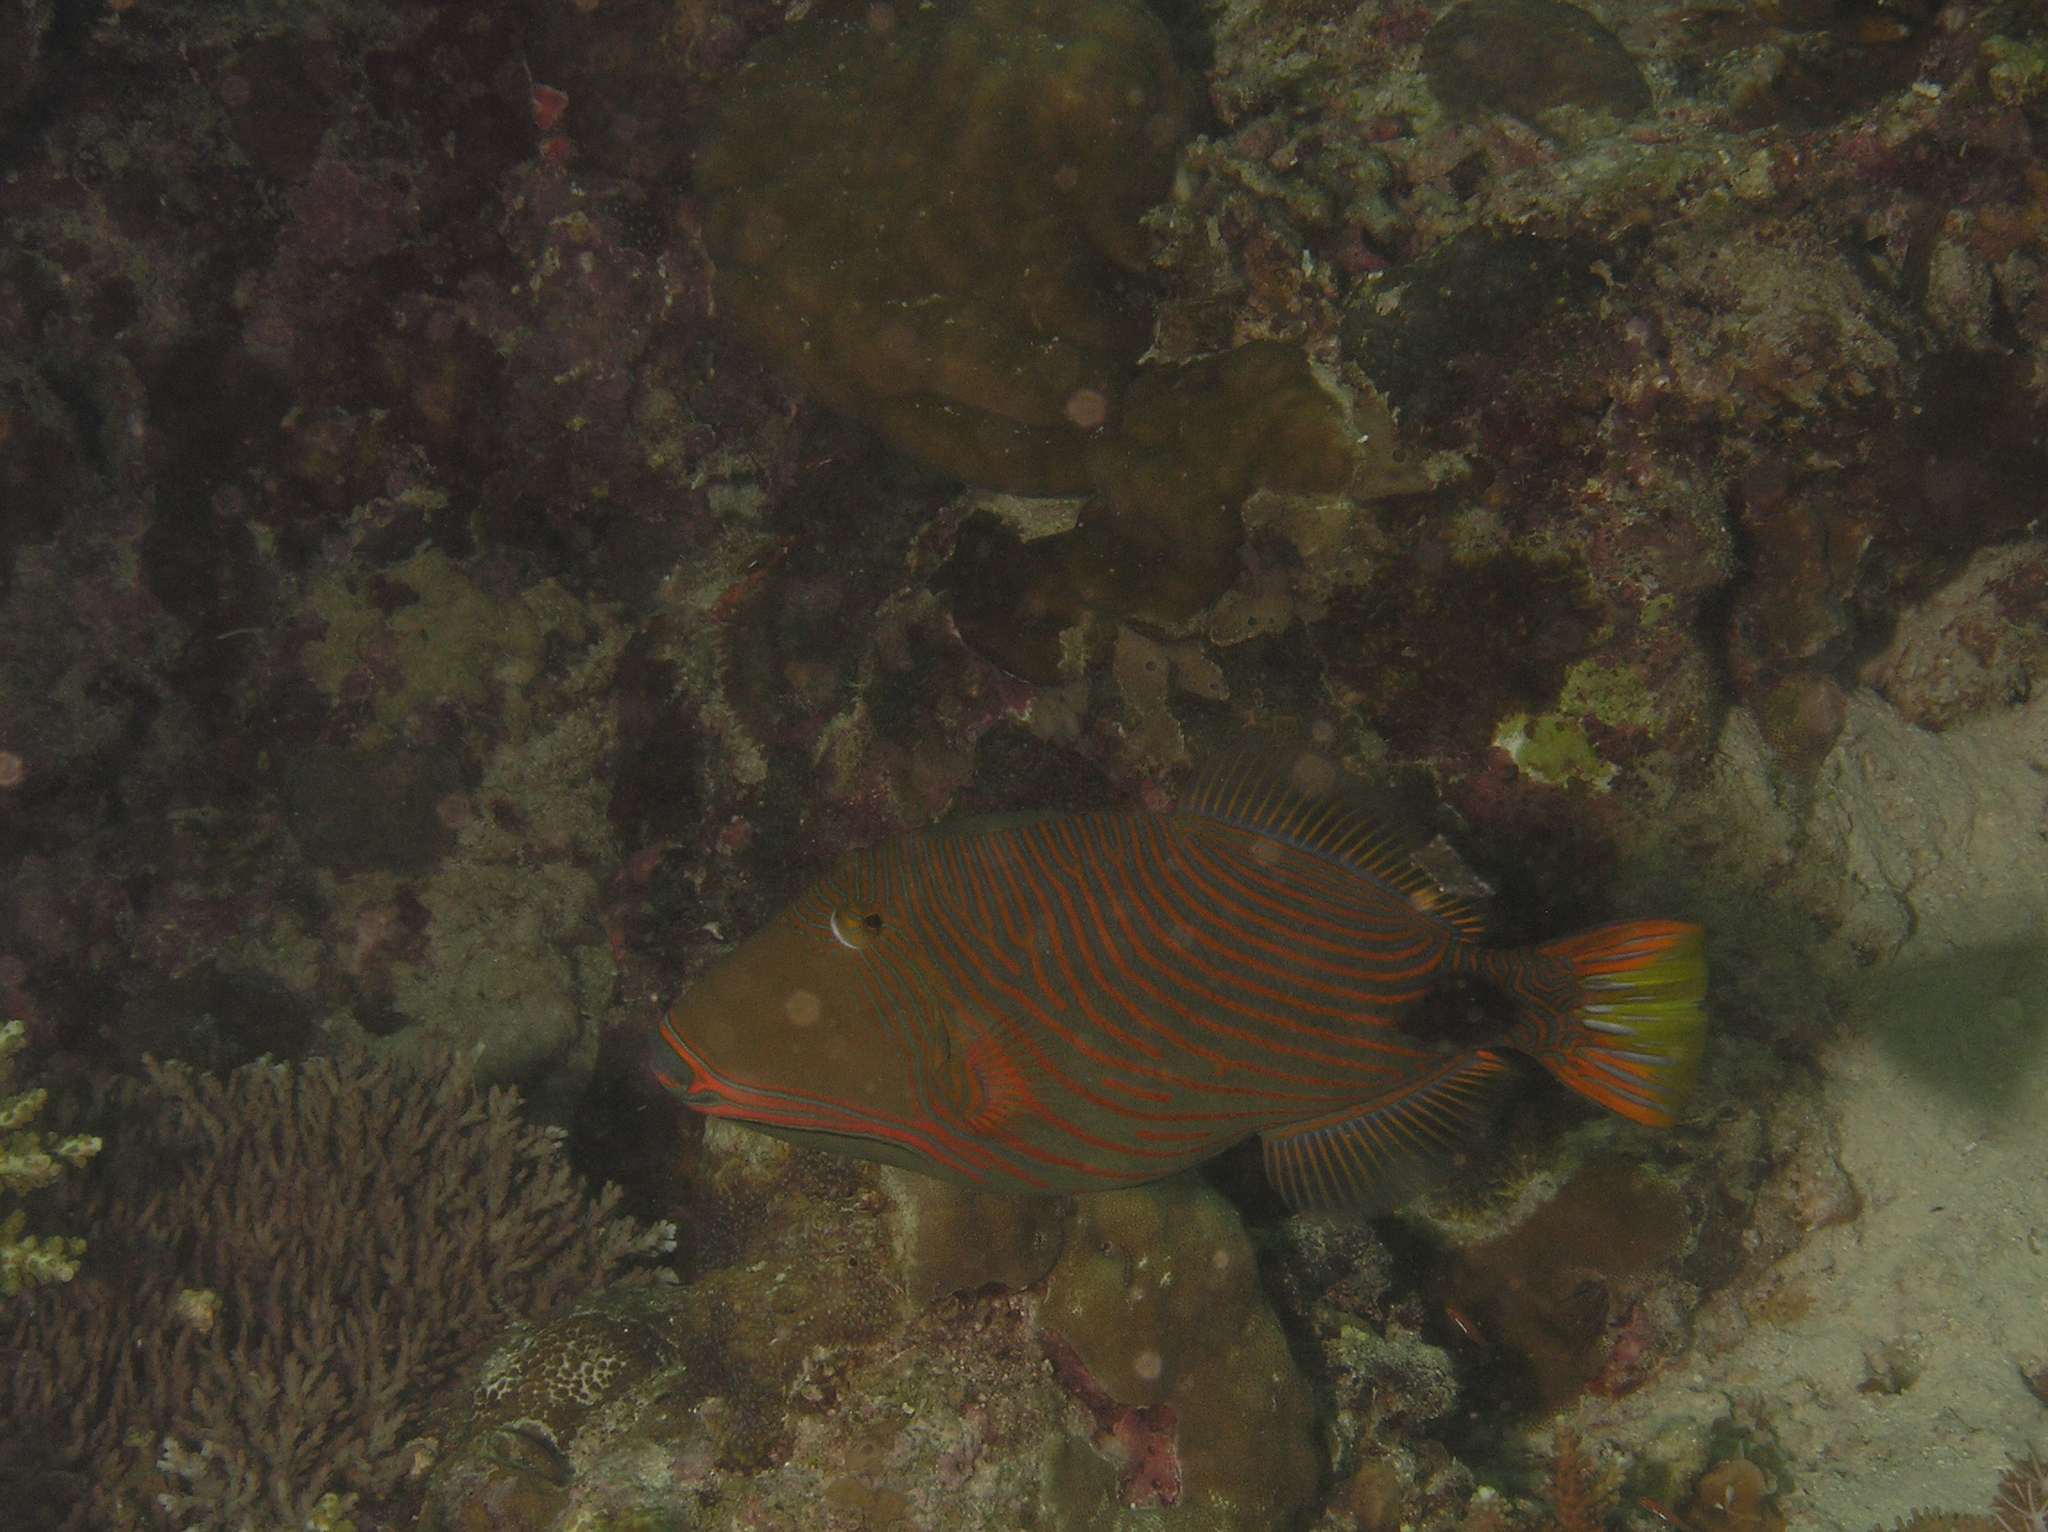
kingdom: Animalia
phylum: Chordata
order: Tetraodontiformes
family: Balistidae
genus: Balistapus
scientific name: Balistapus undulatus
